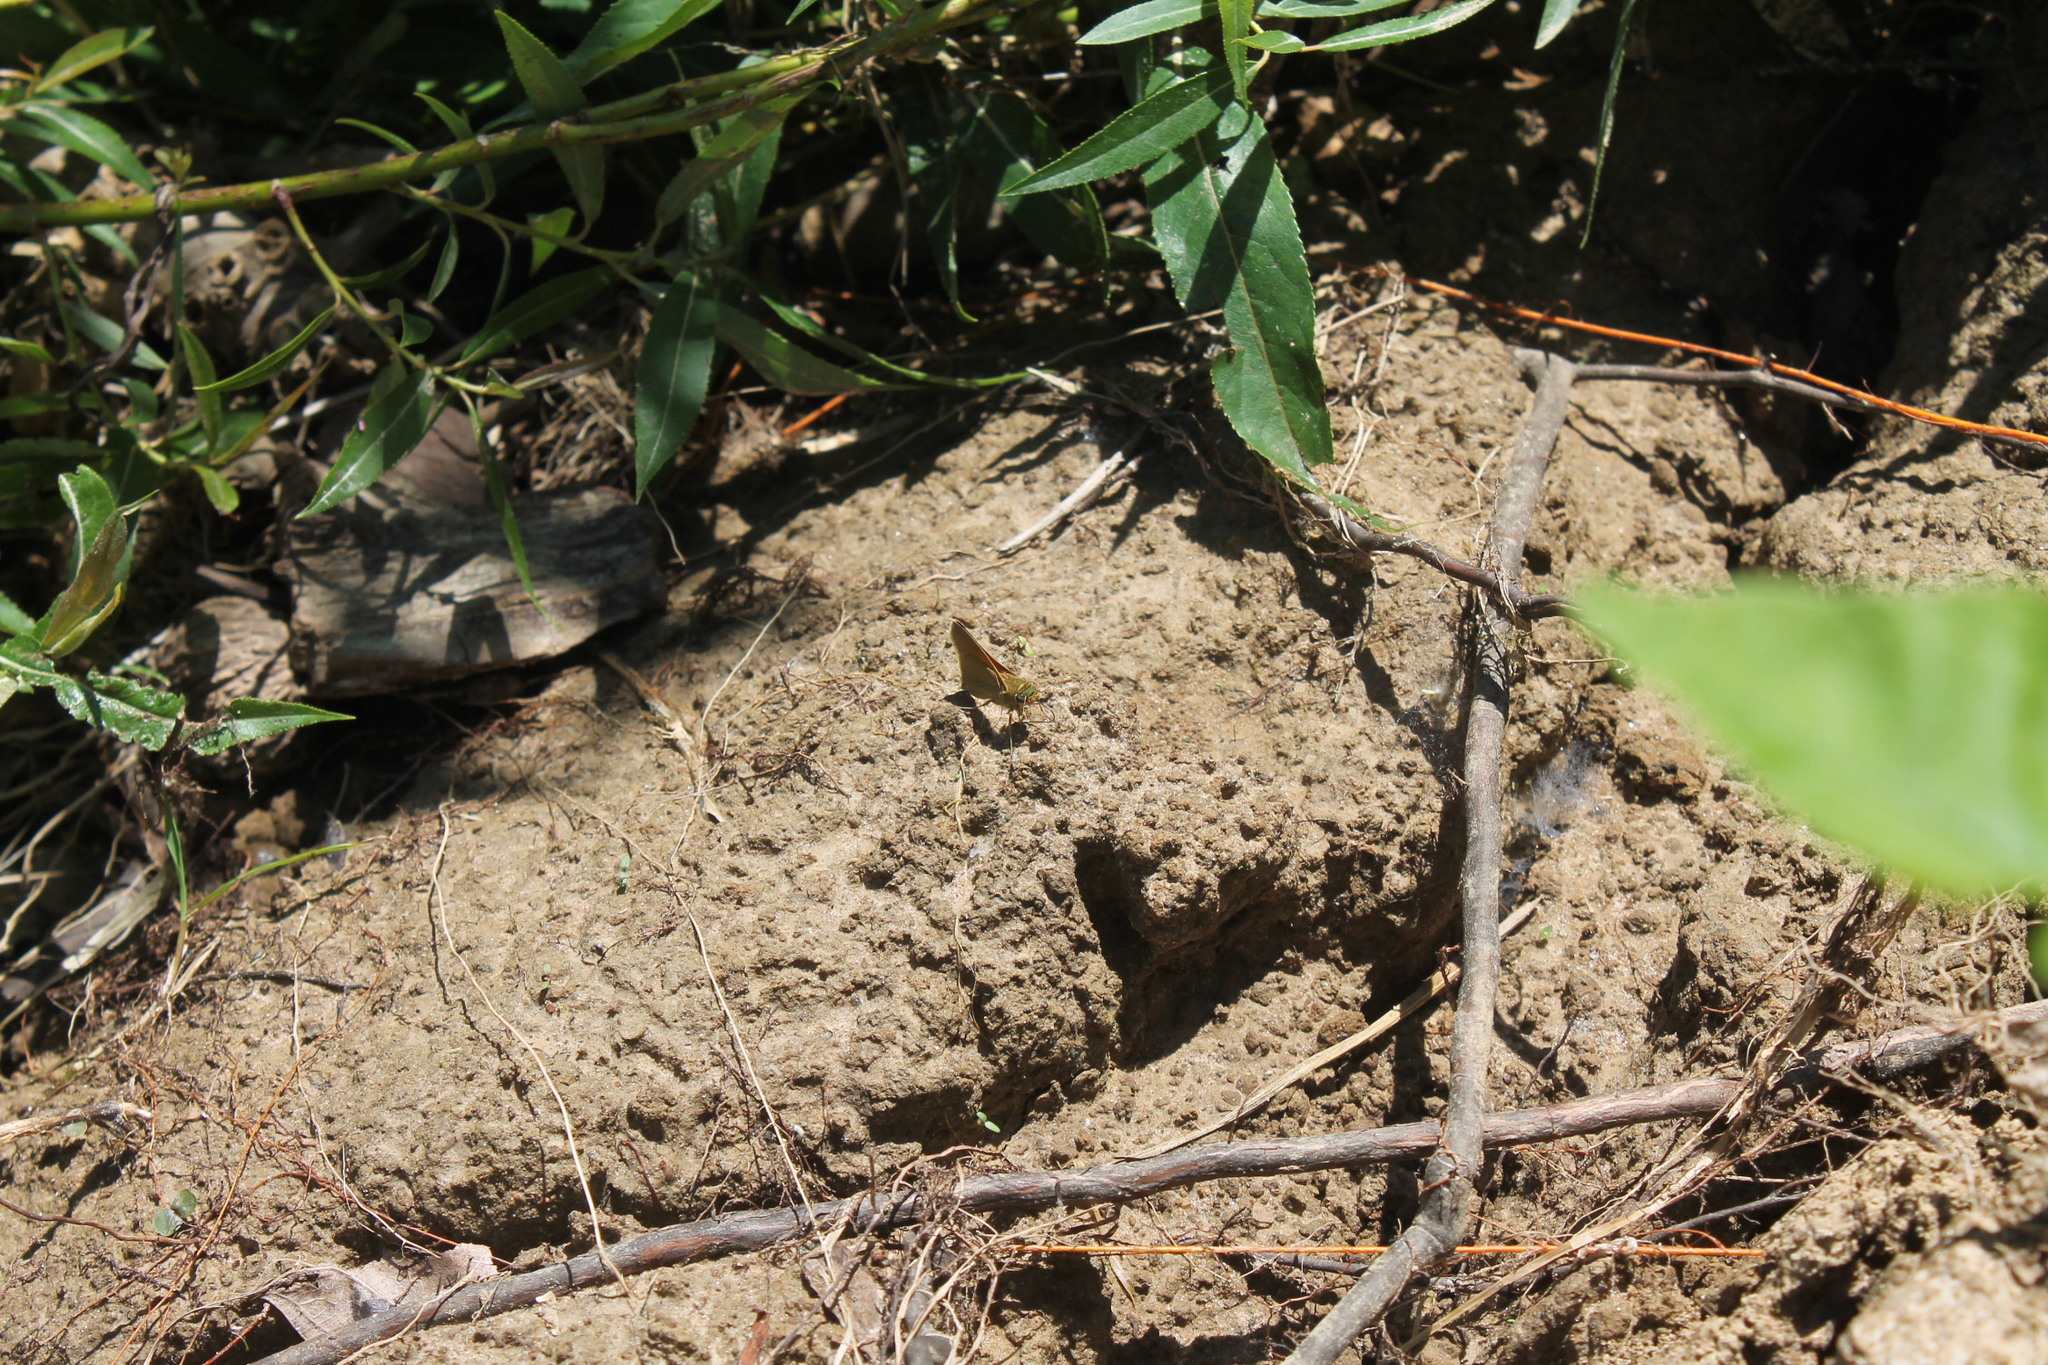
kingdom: Animalia
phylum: Arthropoda
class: Insecta
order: Lepidoptera
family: Hesperiidae
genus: Polites
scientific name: Polites themistocles
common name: Tawny-edged skipper
